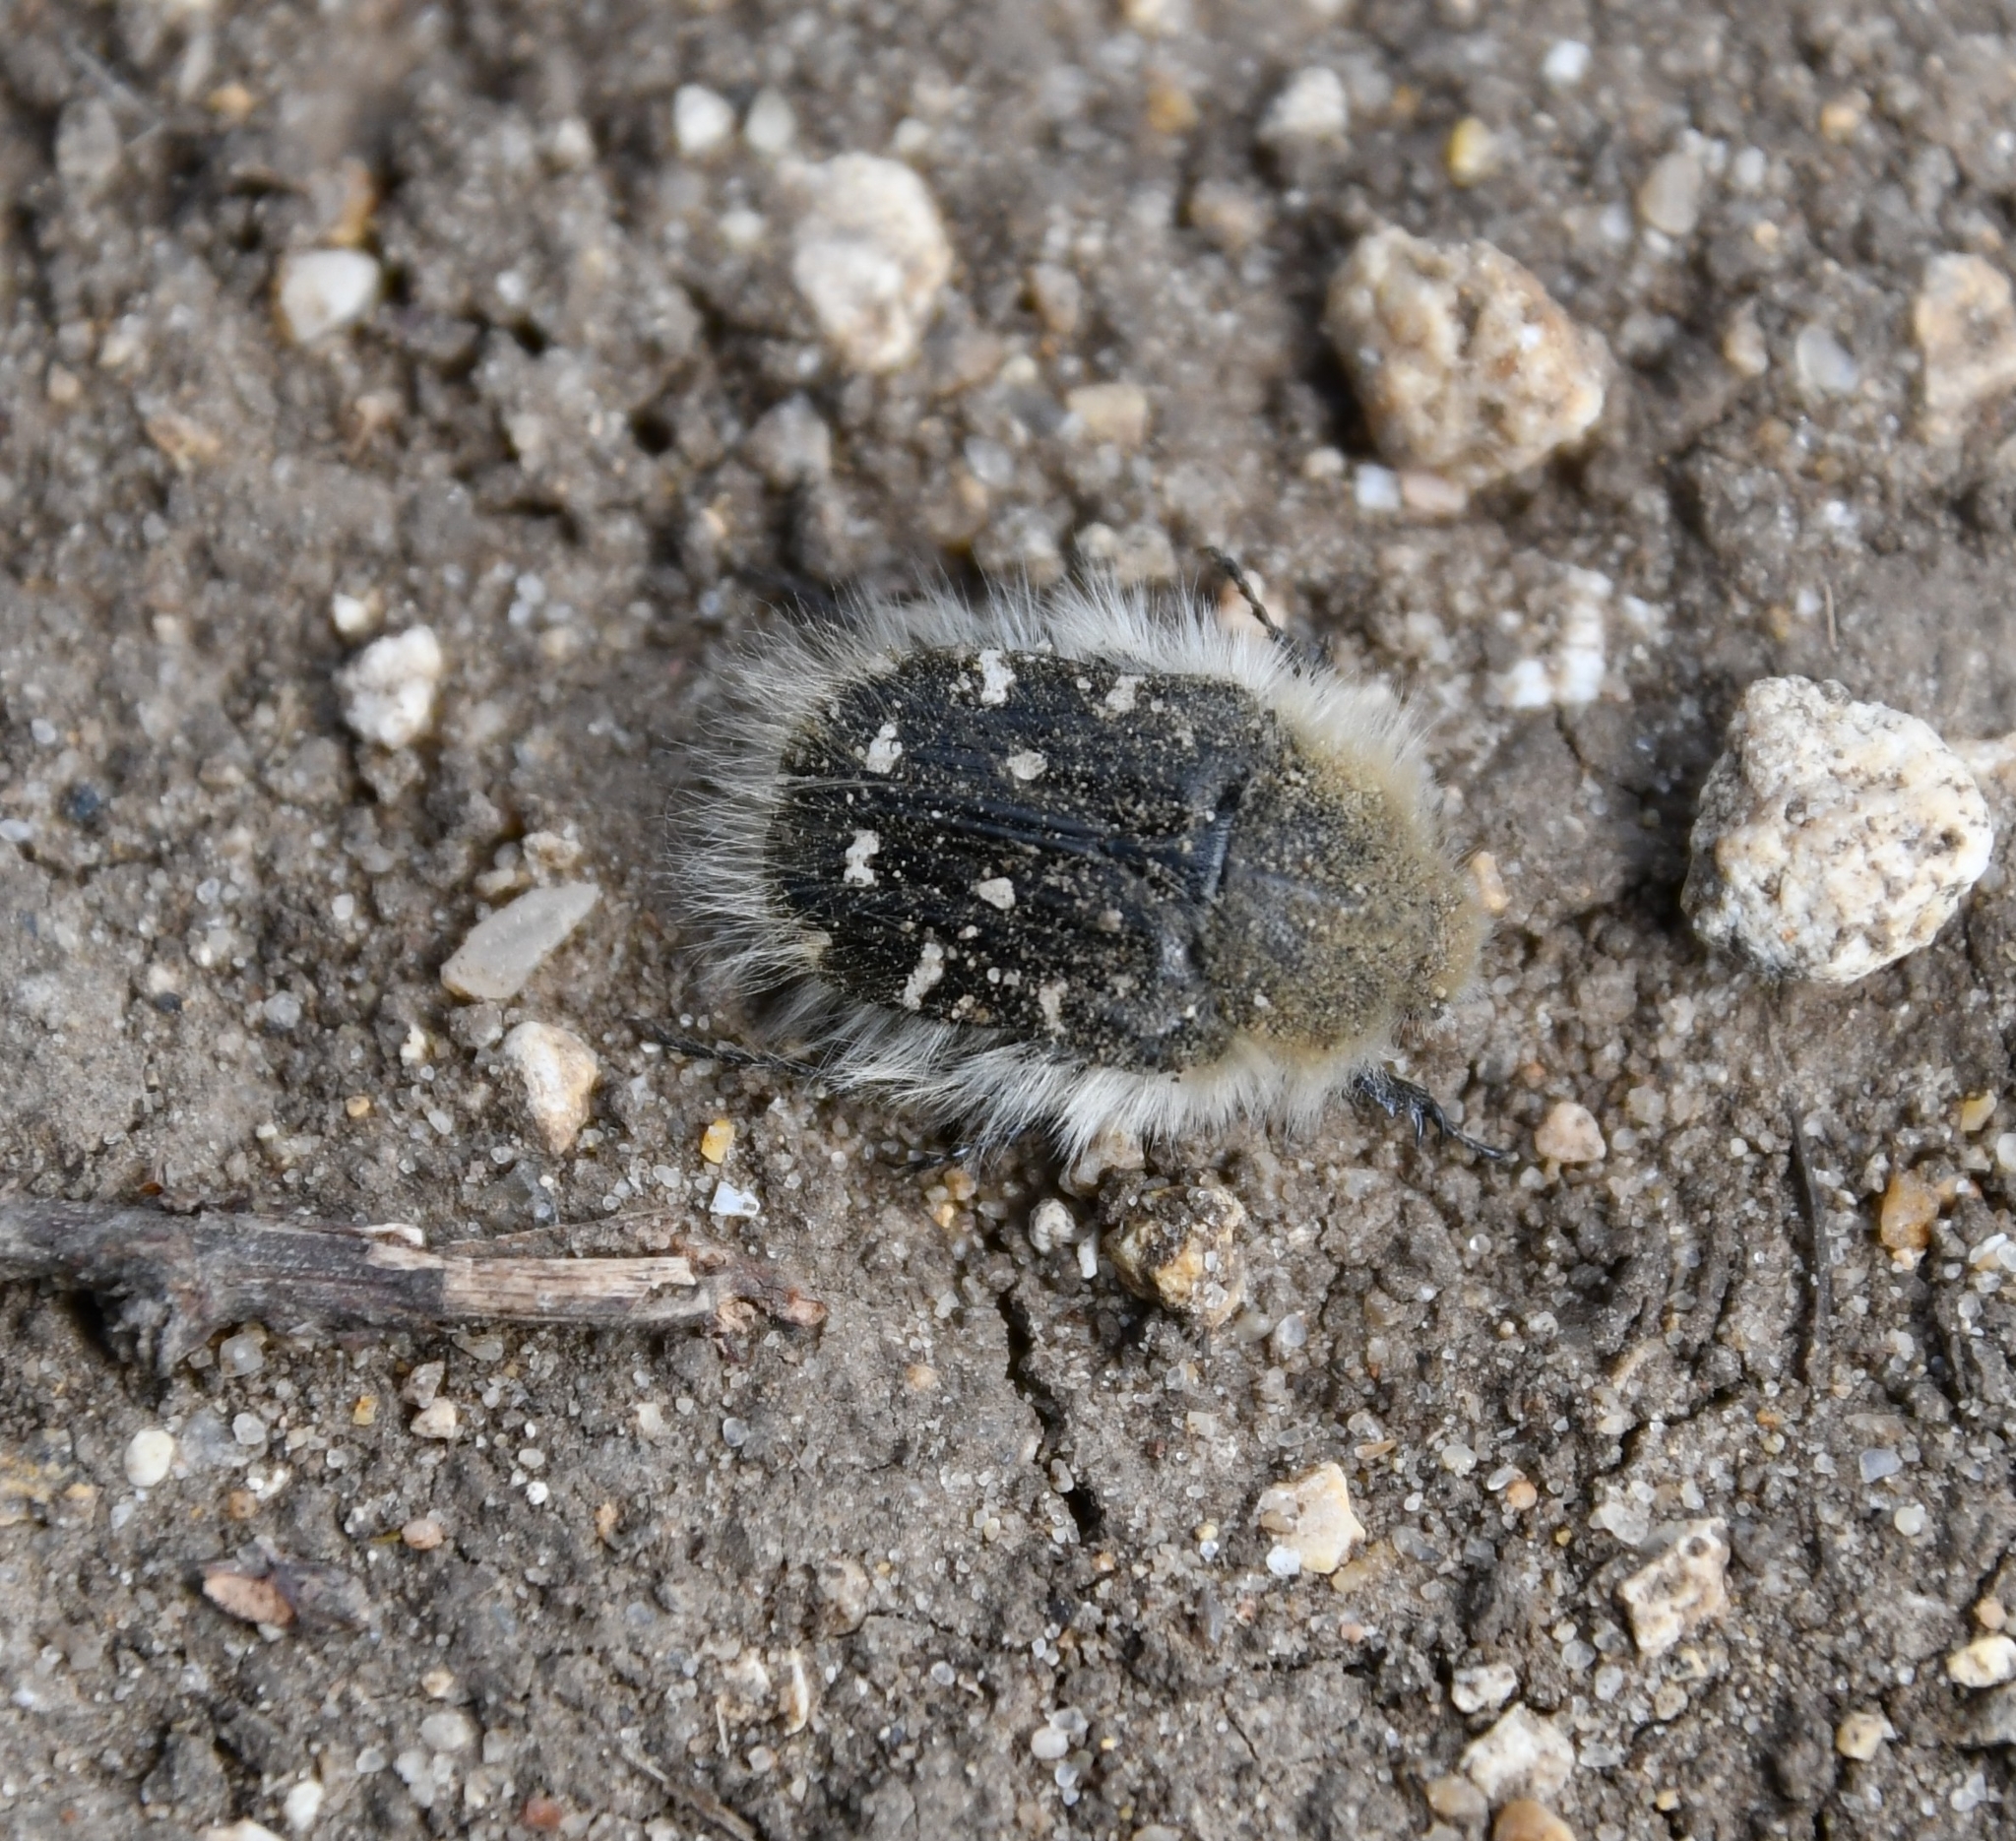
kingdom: Animalia
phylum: Arthropoda
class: Insecta
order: Coleoptera
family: Scarabaeidae
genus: Tropinota
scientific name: Tropinota hirta
